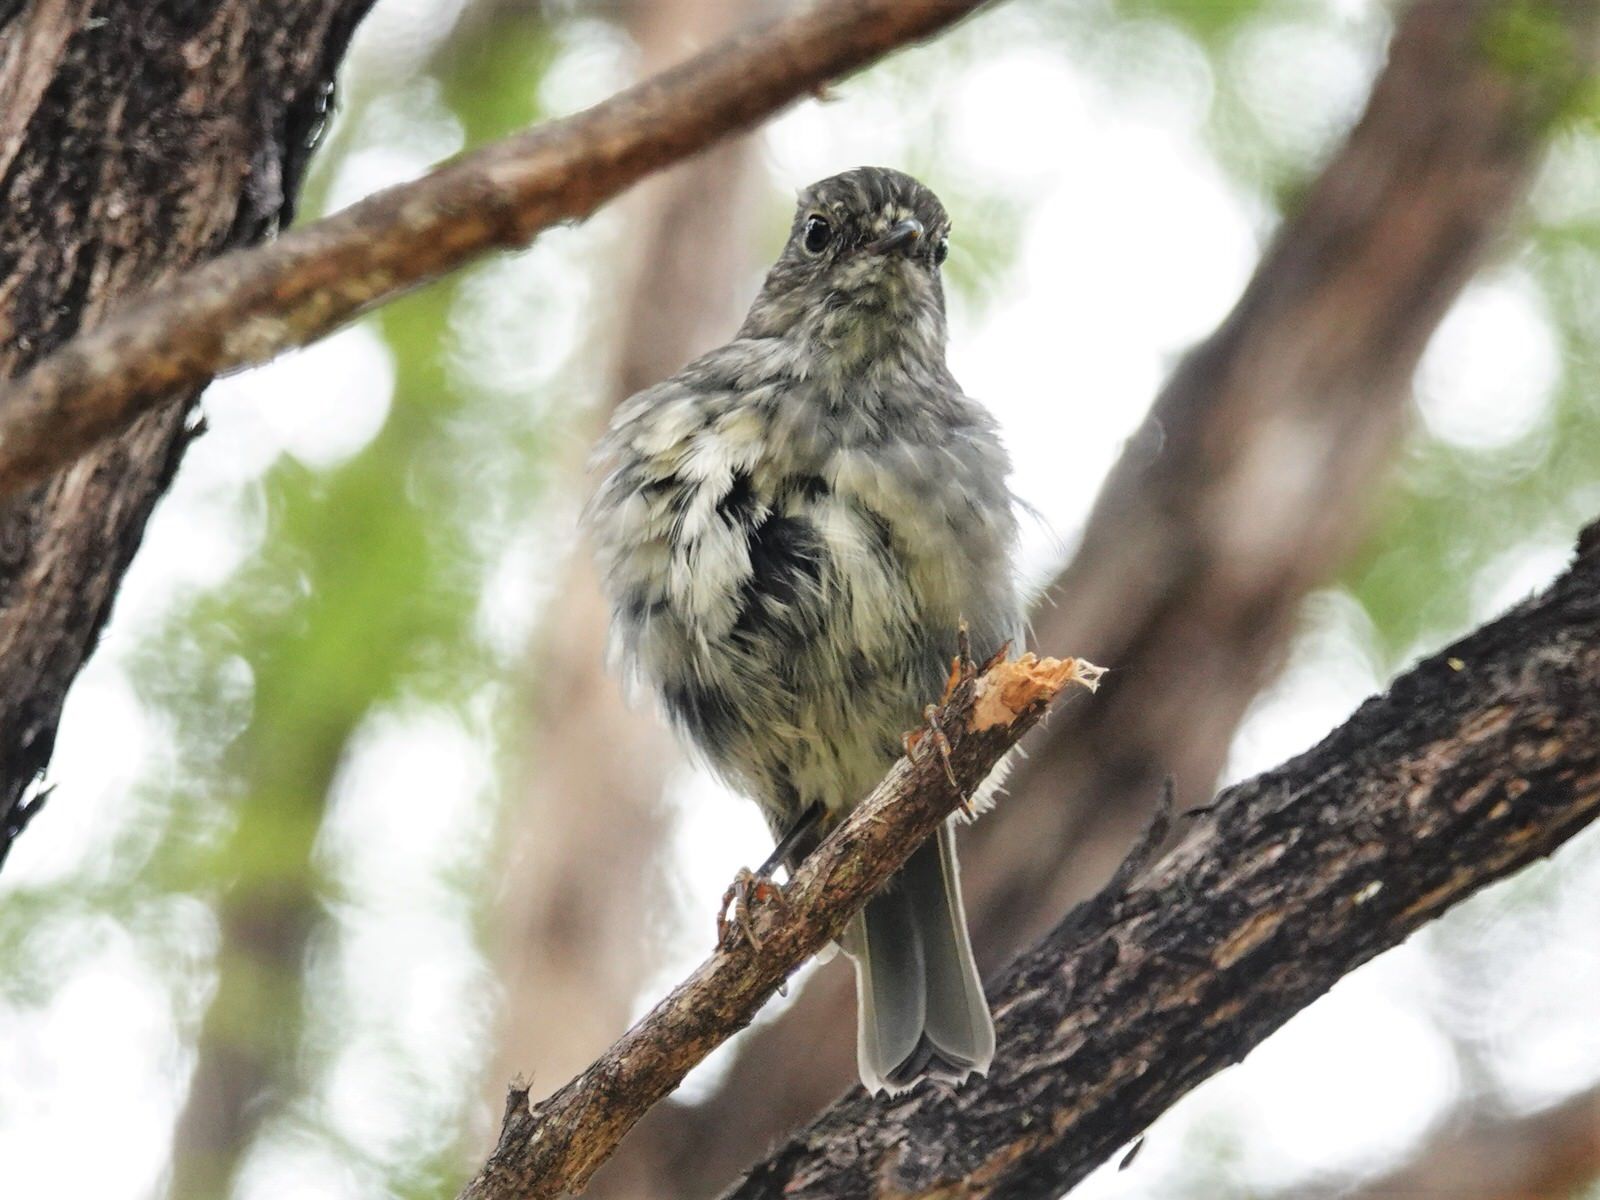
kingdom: Animalia
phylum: Chordata
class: Aves
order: Passeriformes
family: Petroicidae
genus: Petroica
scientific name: Petroica australis
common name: New zealand robin
